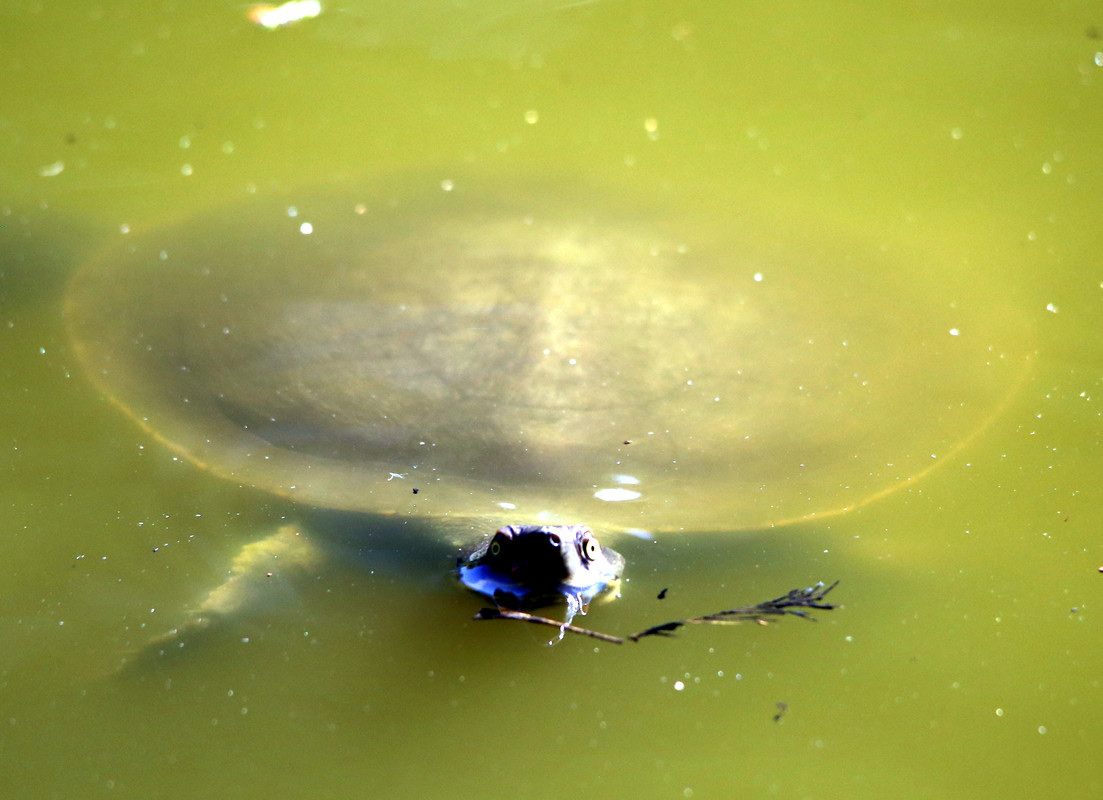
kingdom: Animalia
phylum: Chordata
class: Testudines
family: Chelidae
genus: Emydura
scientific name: Emydura macquarii
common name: Murray river turtle
